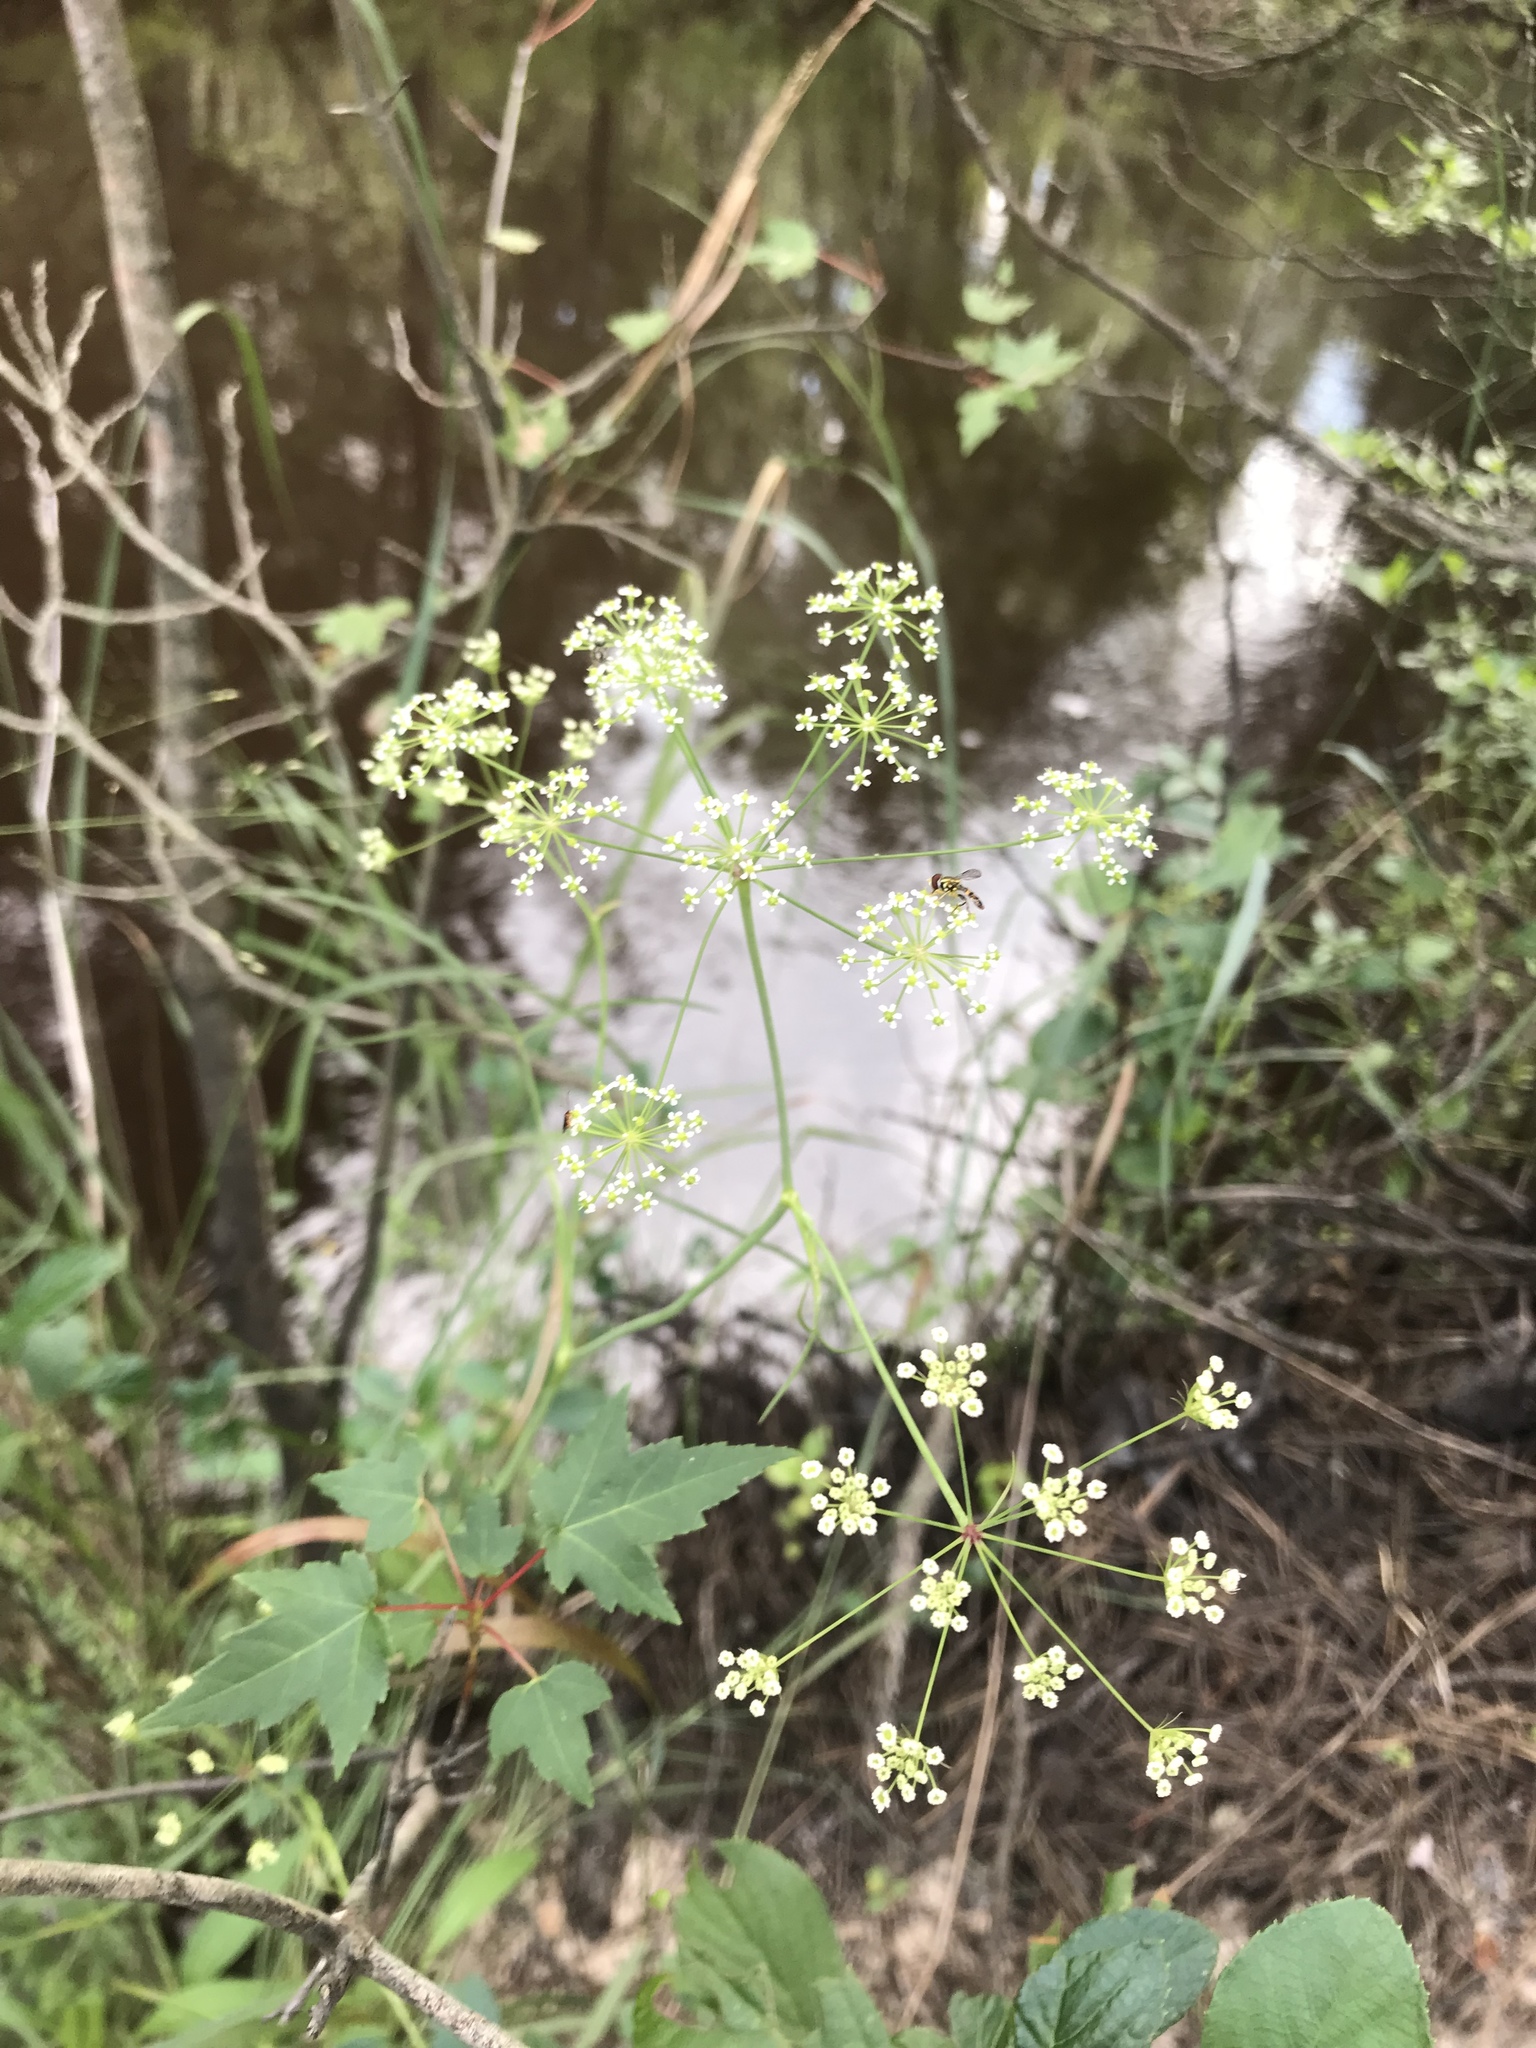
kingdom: Plantae
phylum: Tracheophyta
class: Magnoliopsida
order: Apiales
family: Apiaceae
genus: Oxypolis
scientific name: Oxypolis rigidior
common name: Cowbane
